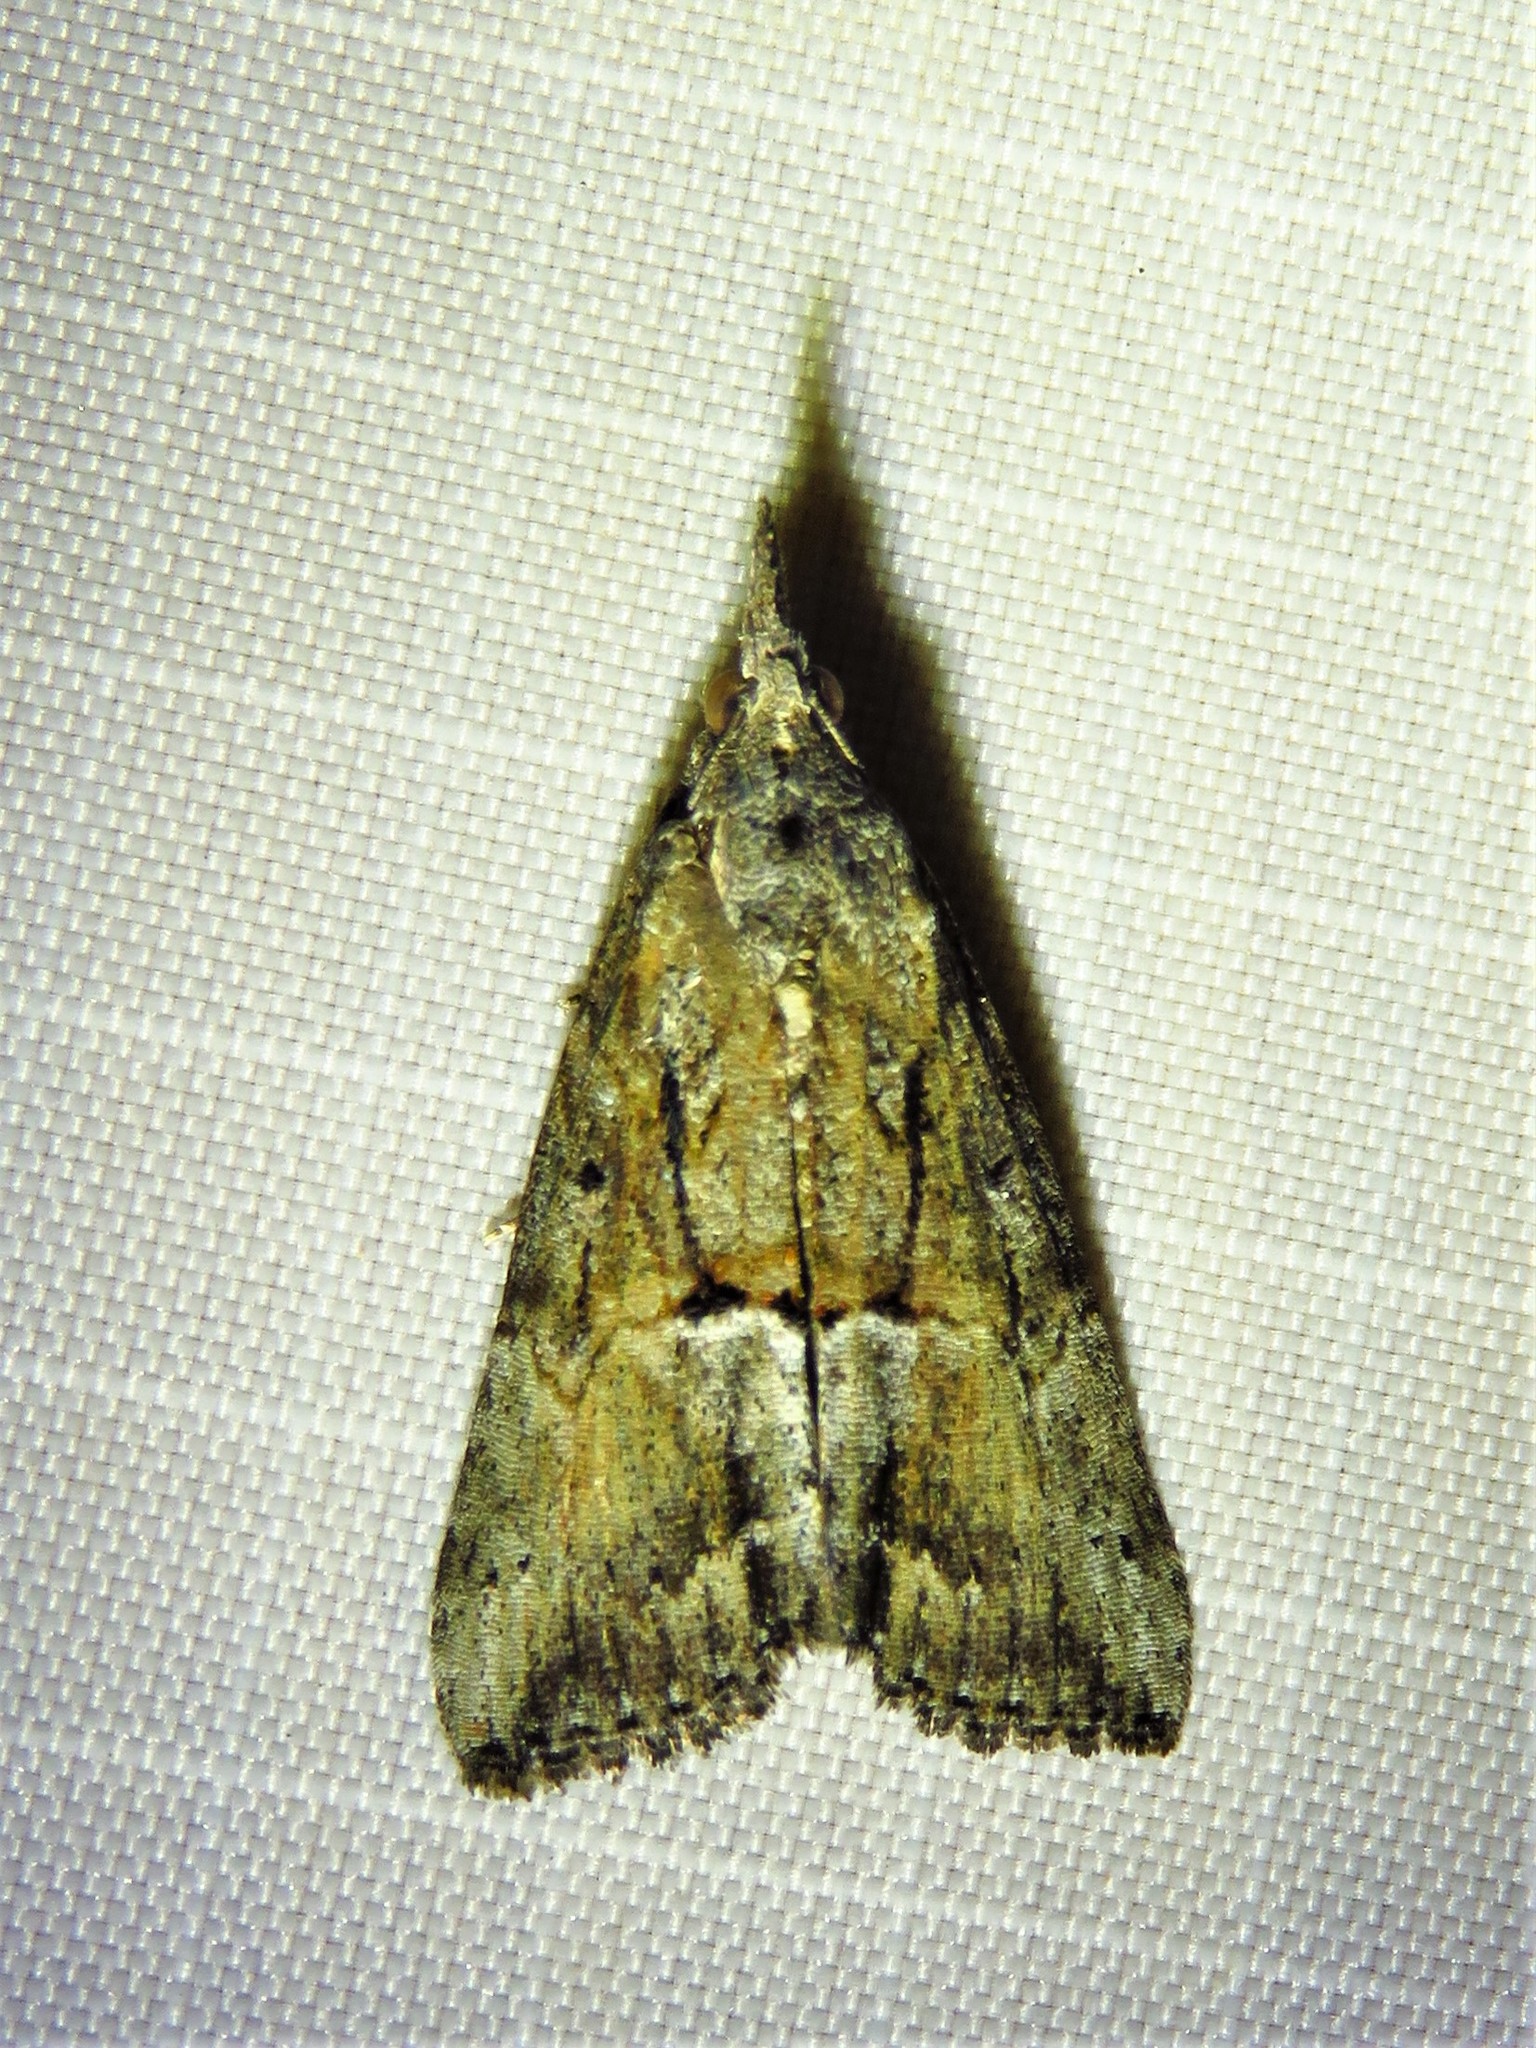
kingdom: Animalia
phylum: Arthropoda
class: Insecta
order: Lepidoptera
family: Erebidae
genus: Hypena
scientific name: Hypena scabra
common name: Green cloverworm
